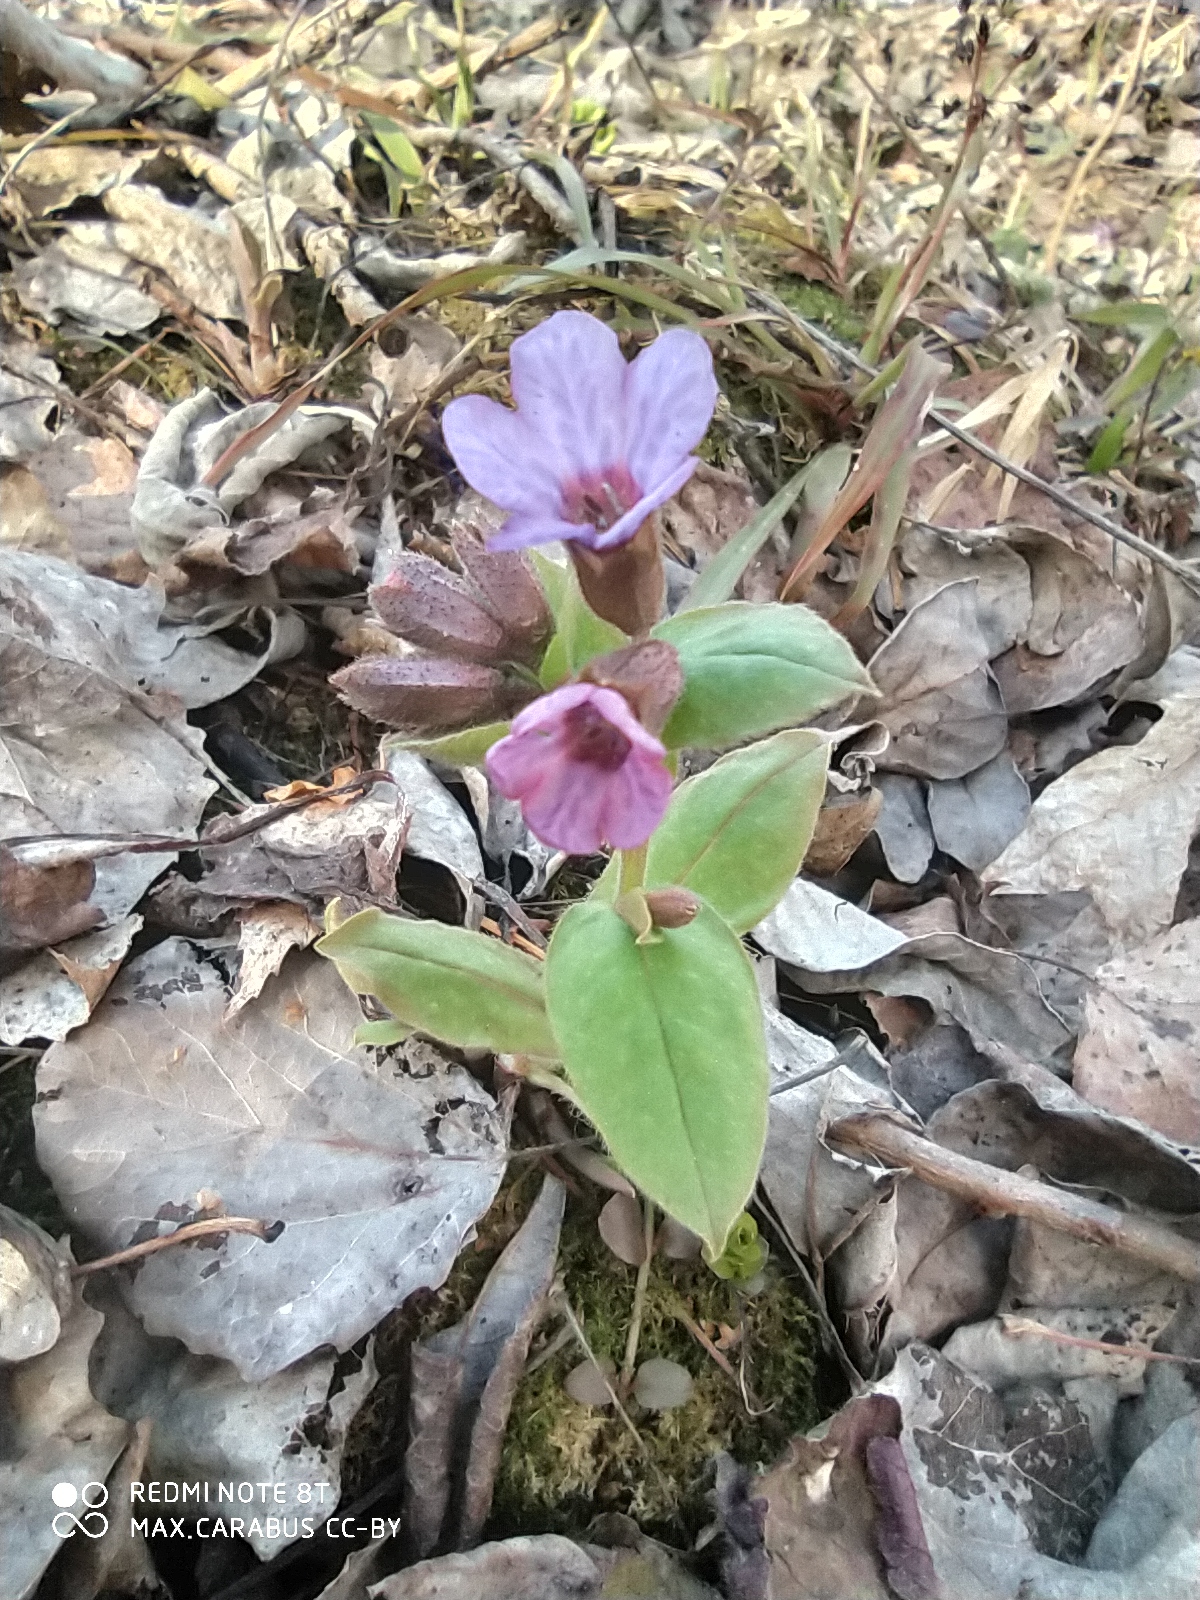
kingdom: Plantae
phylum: Tracheophyta
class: Magnoliopsida
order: Boraginales
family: Boraginaceae
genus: Pulmonaria
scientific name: Pulmonaria obscura
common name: Suffolk lungwort
